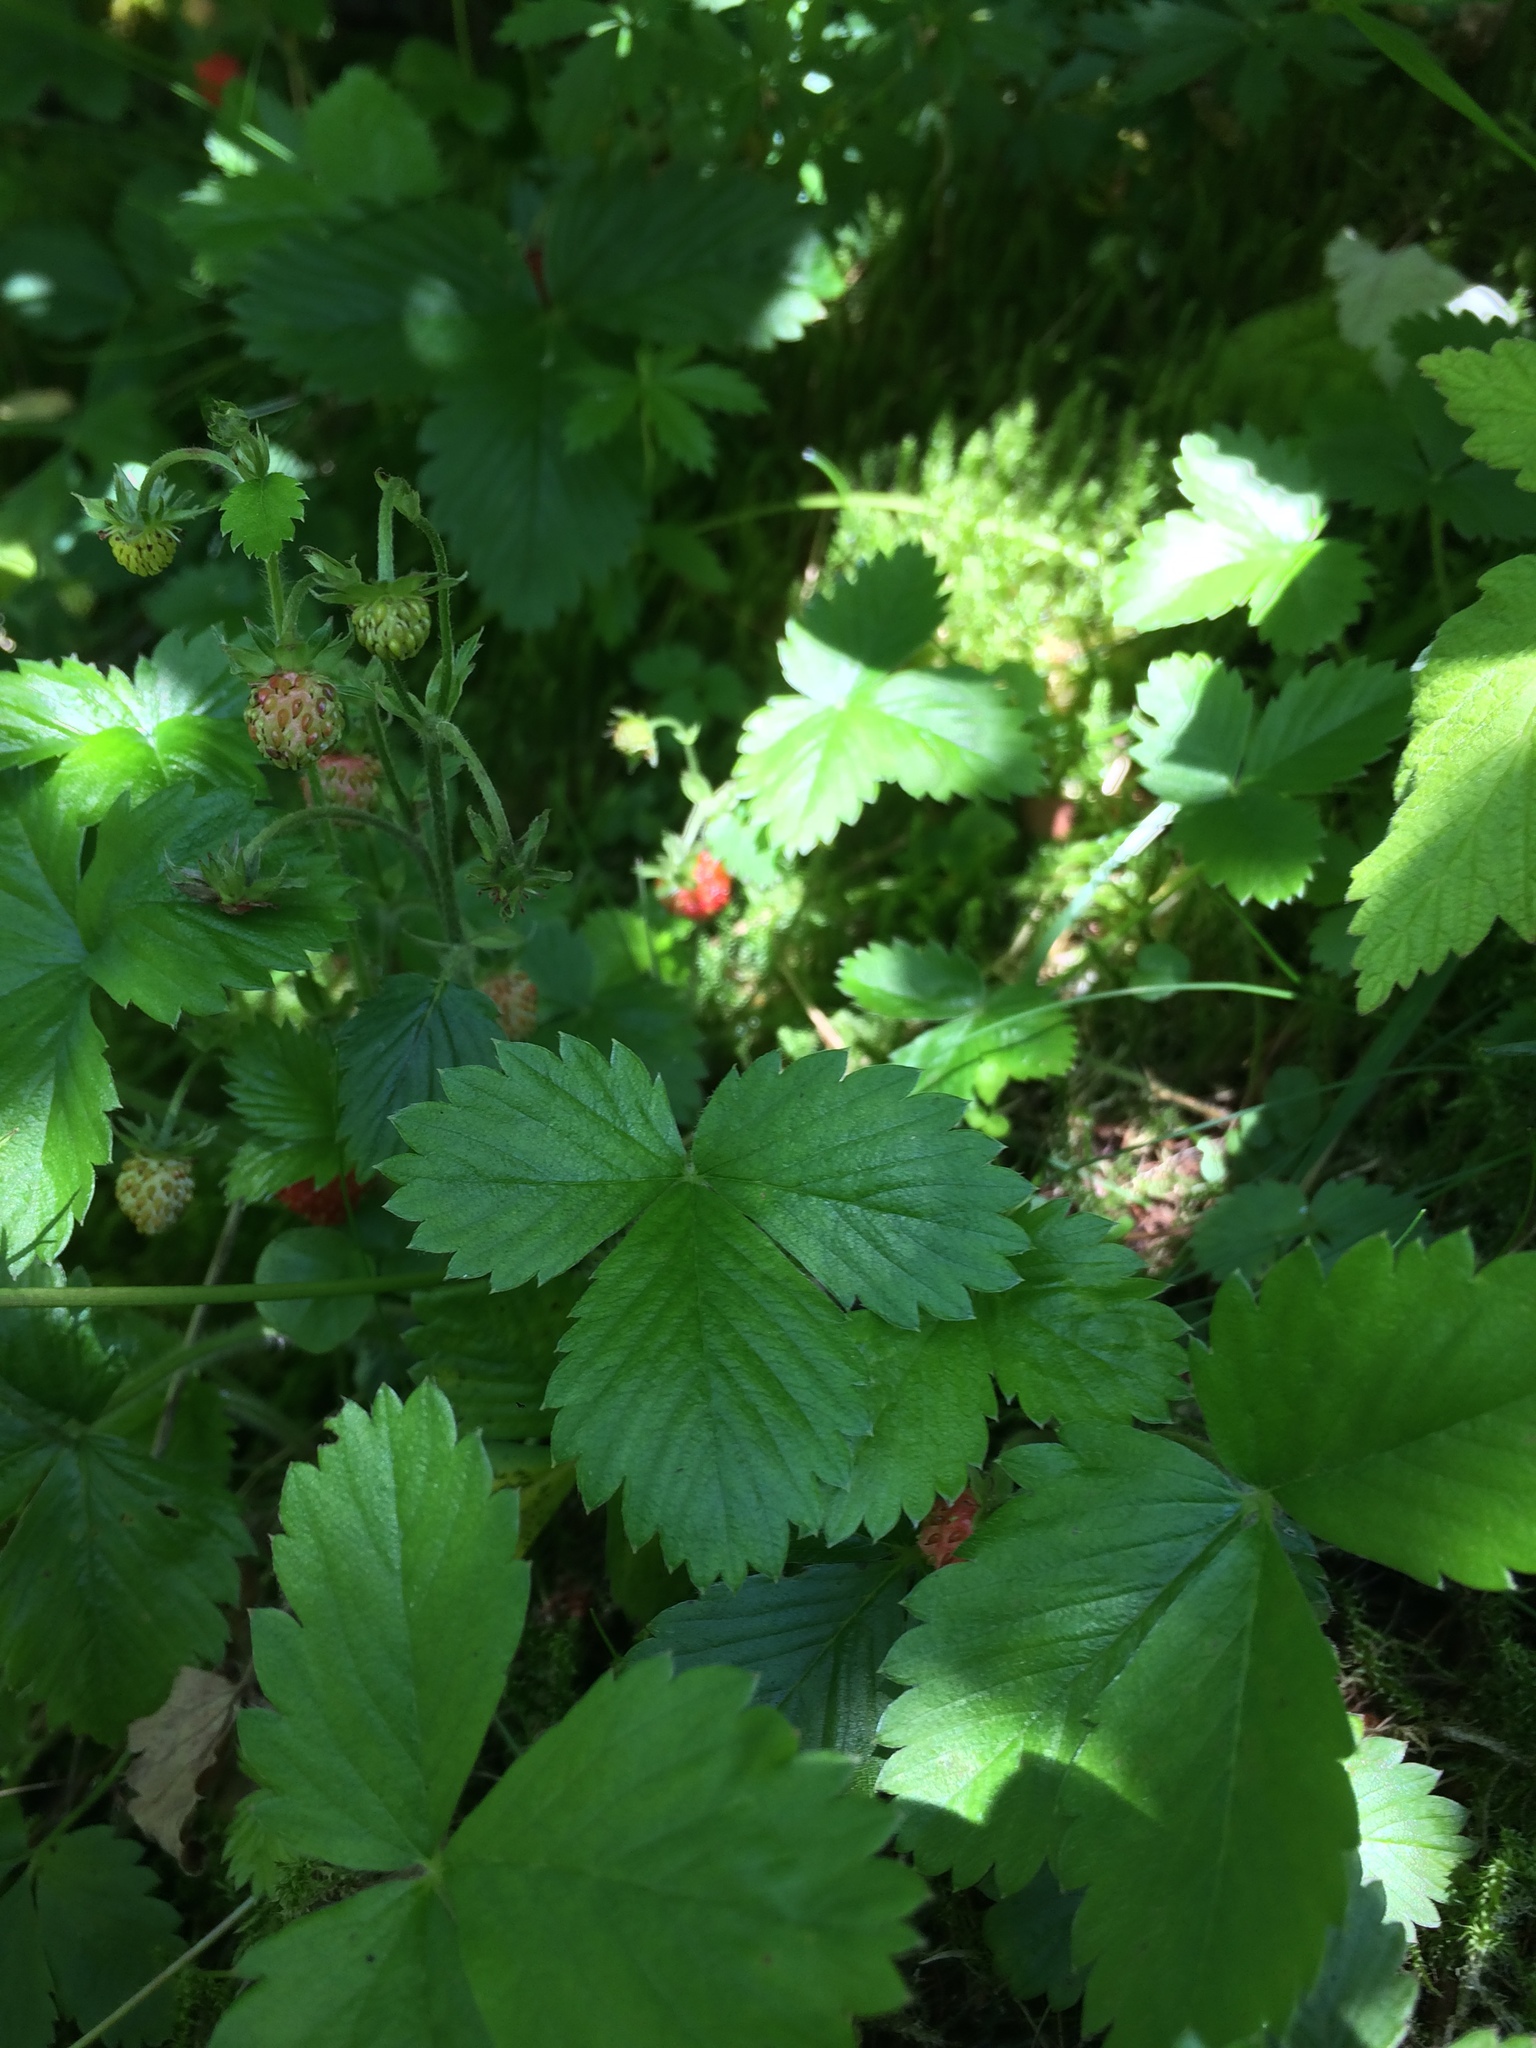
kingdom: Plantae
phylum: Tracheophyta
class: Magnoliopsida
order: Rosales
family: Rosaceae
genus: Fragaria
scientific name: Fragaria vesca
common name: Wild strawberry
